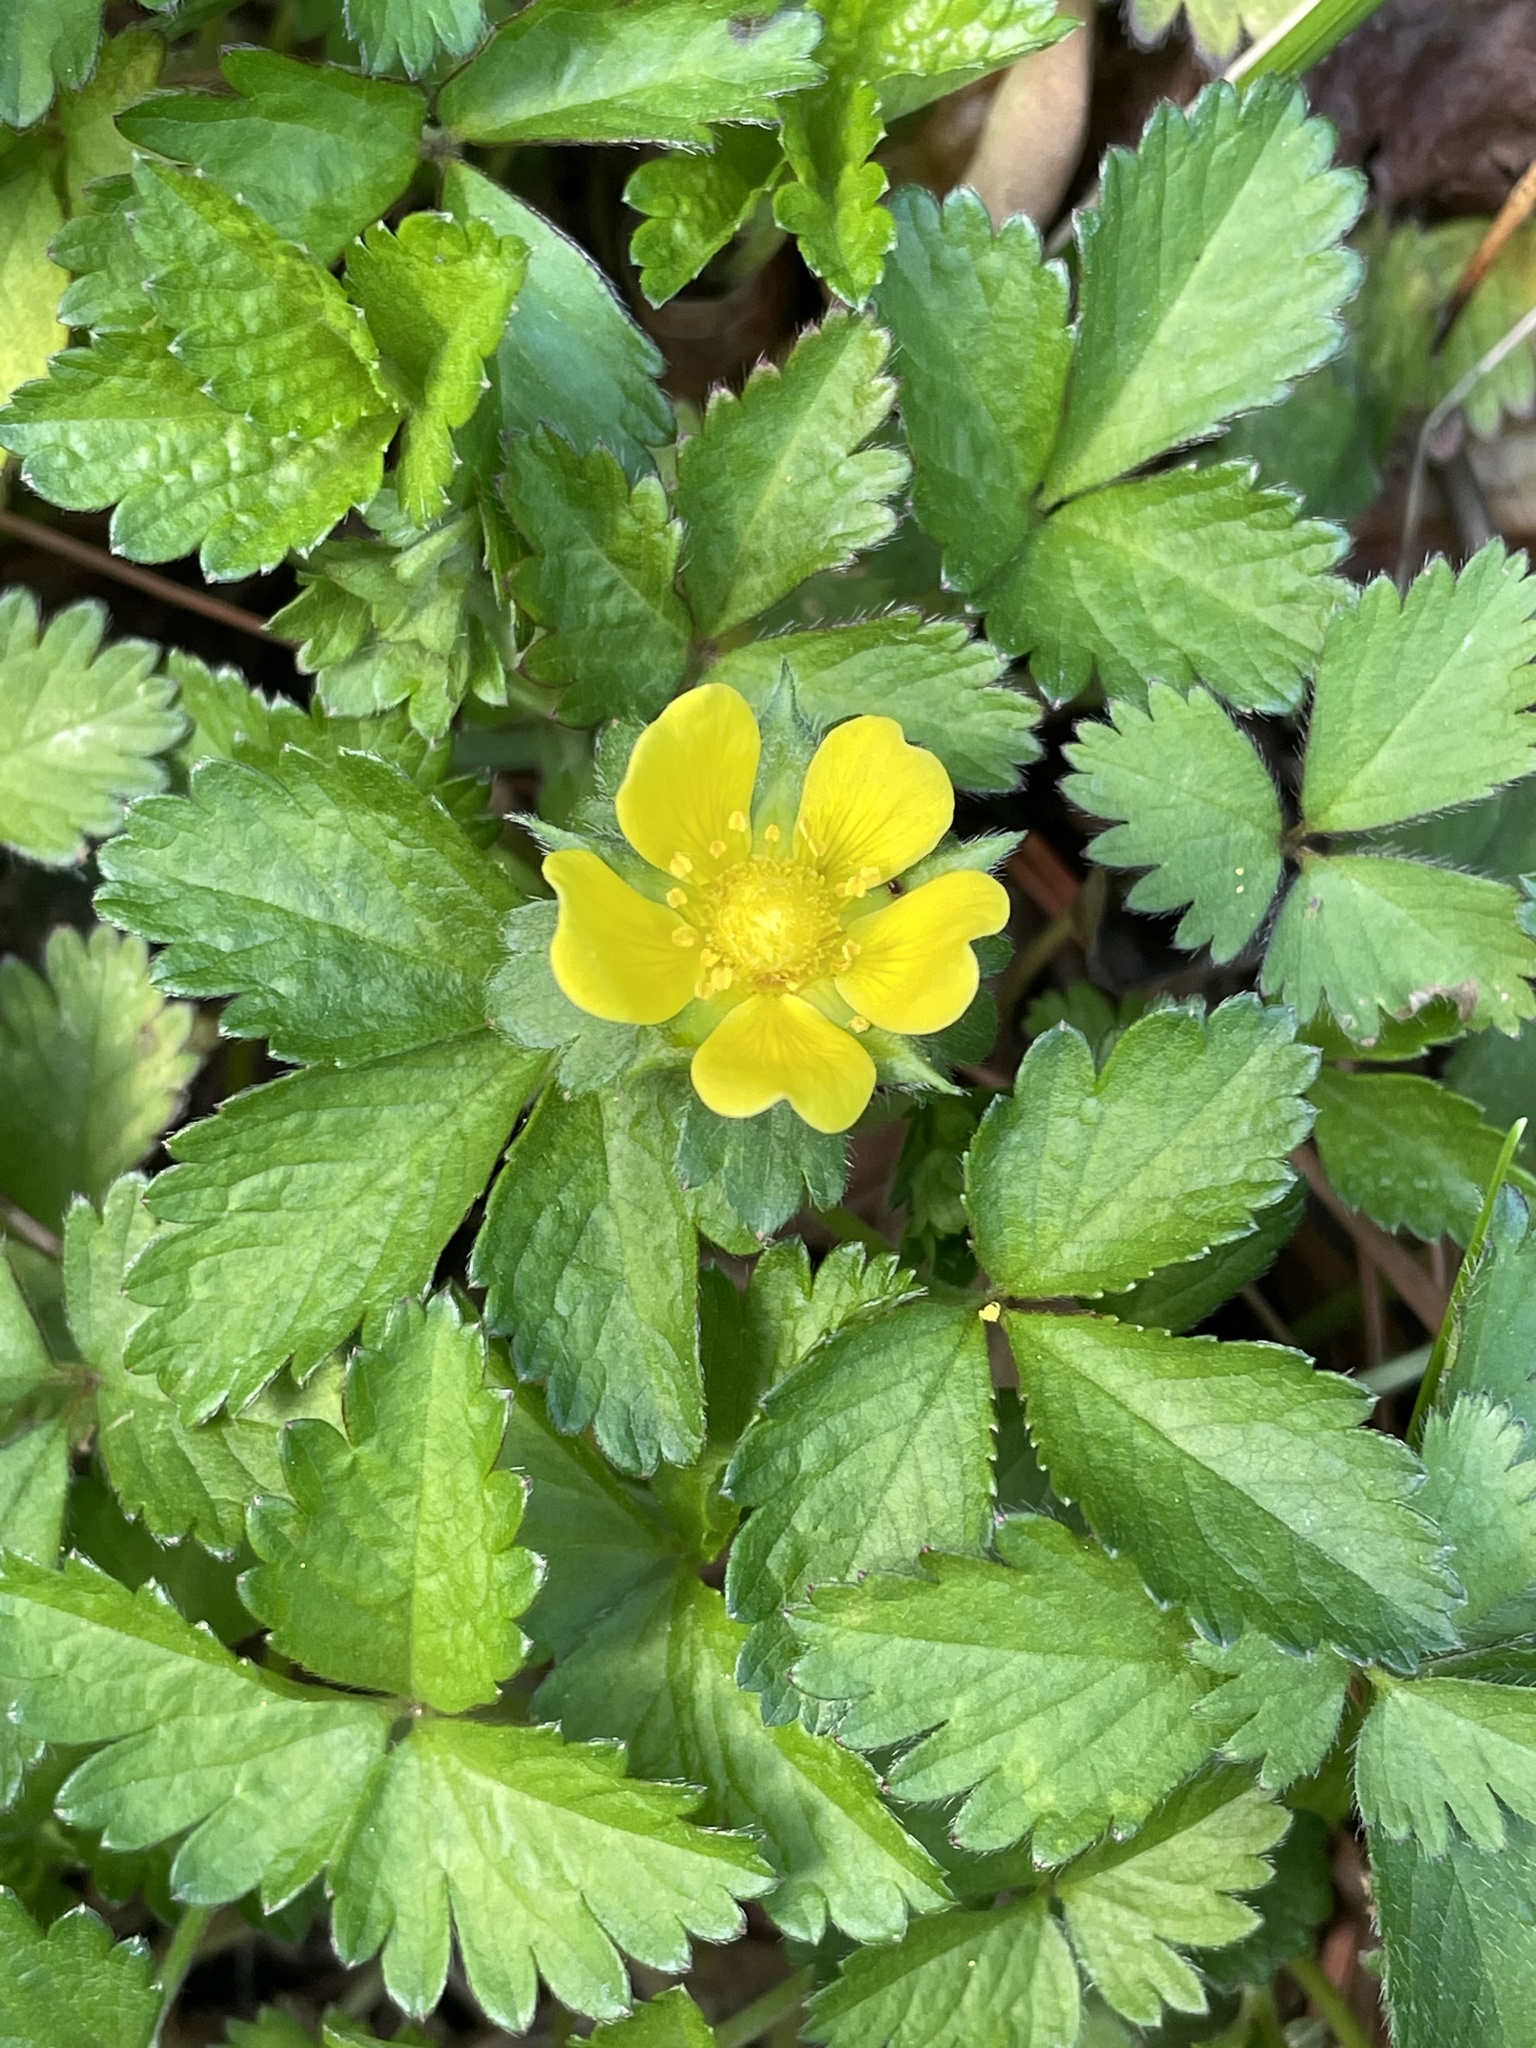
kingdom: Plantae
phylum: Tracheophyta
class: Magnoliopsida
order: Rosales
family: Rosaceae
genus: Potentilla
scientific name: Potentilla indica
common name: Yellow-flowered strawberry
